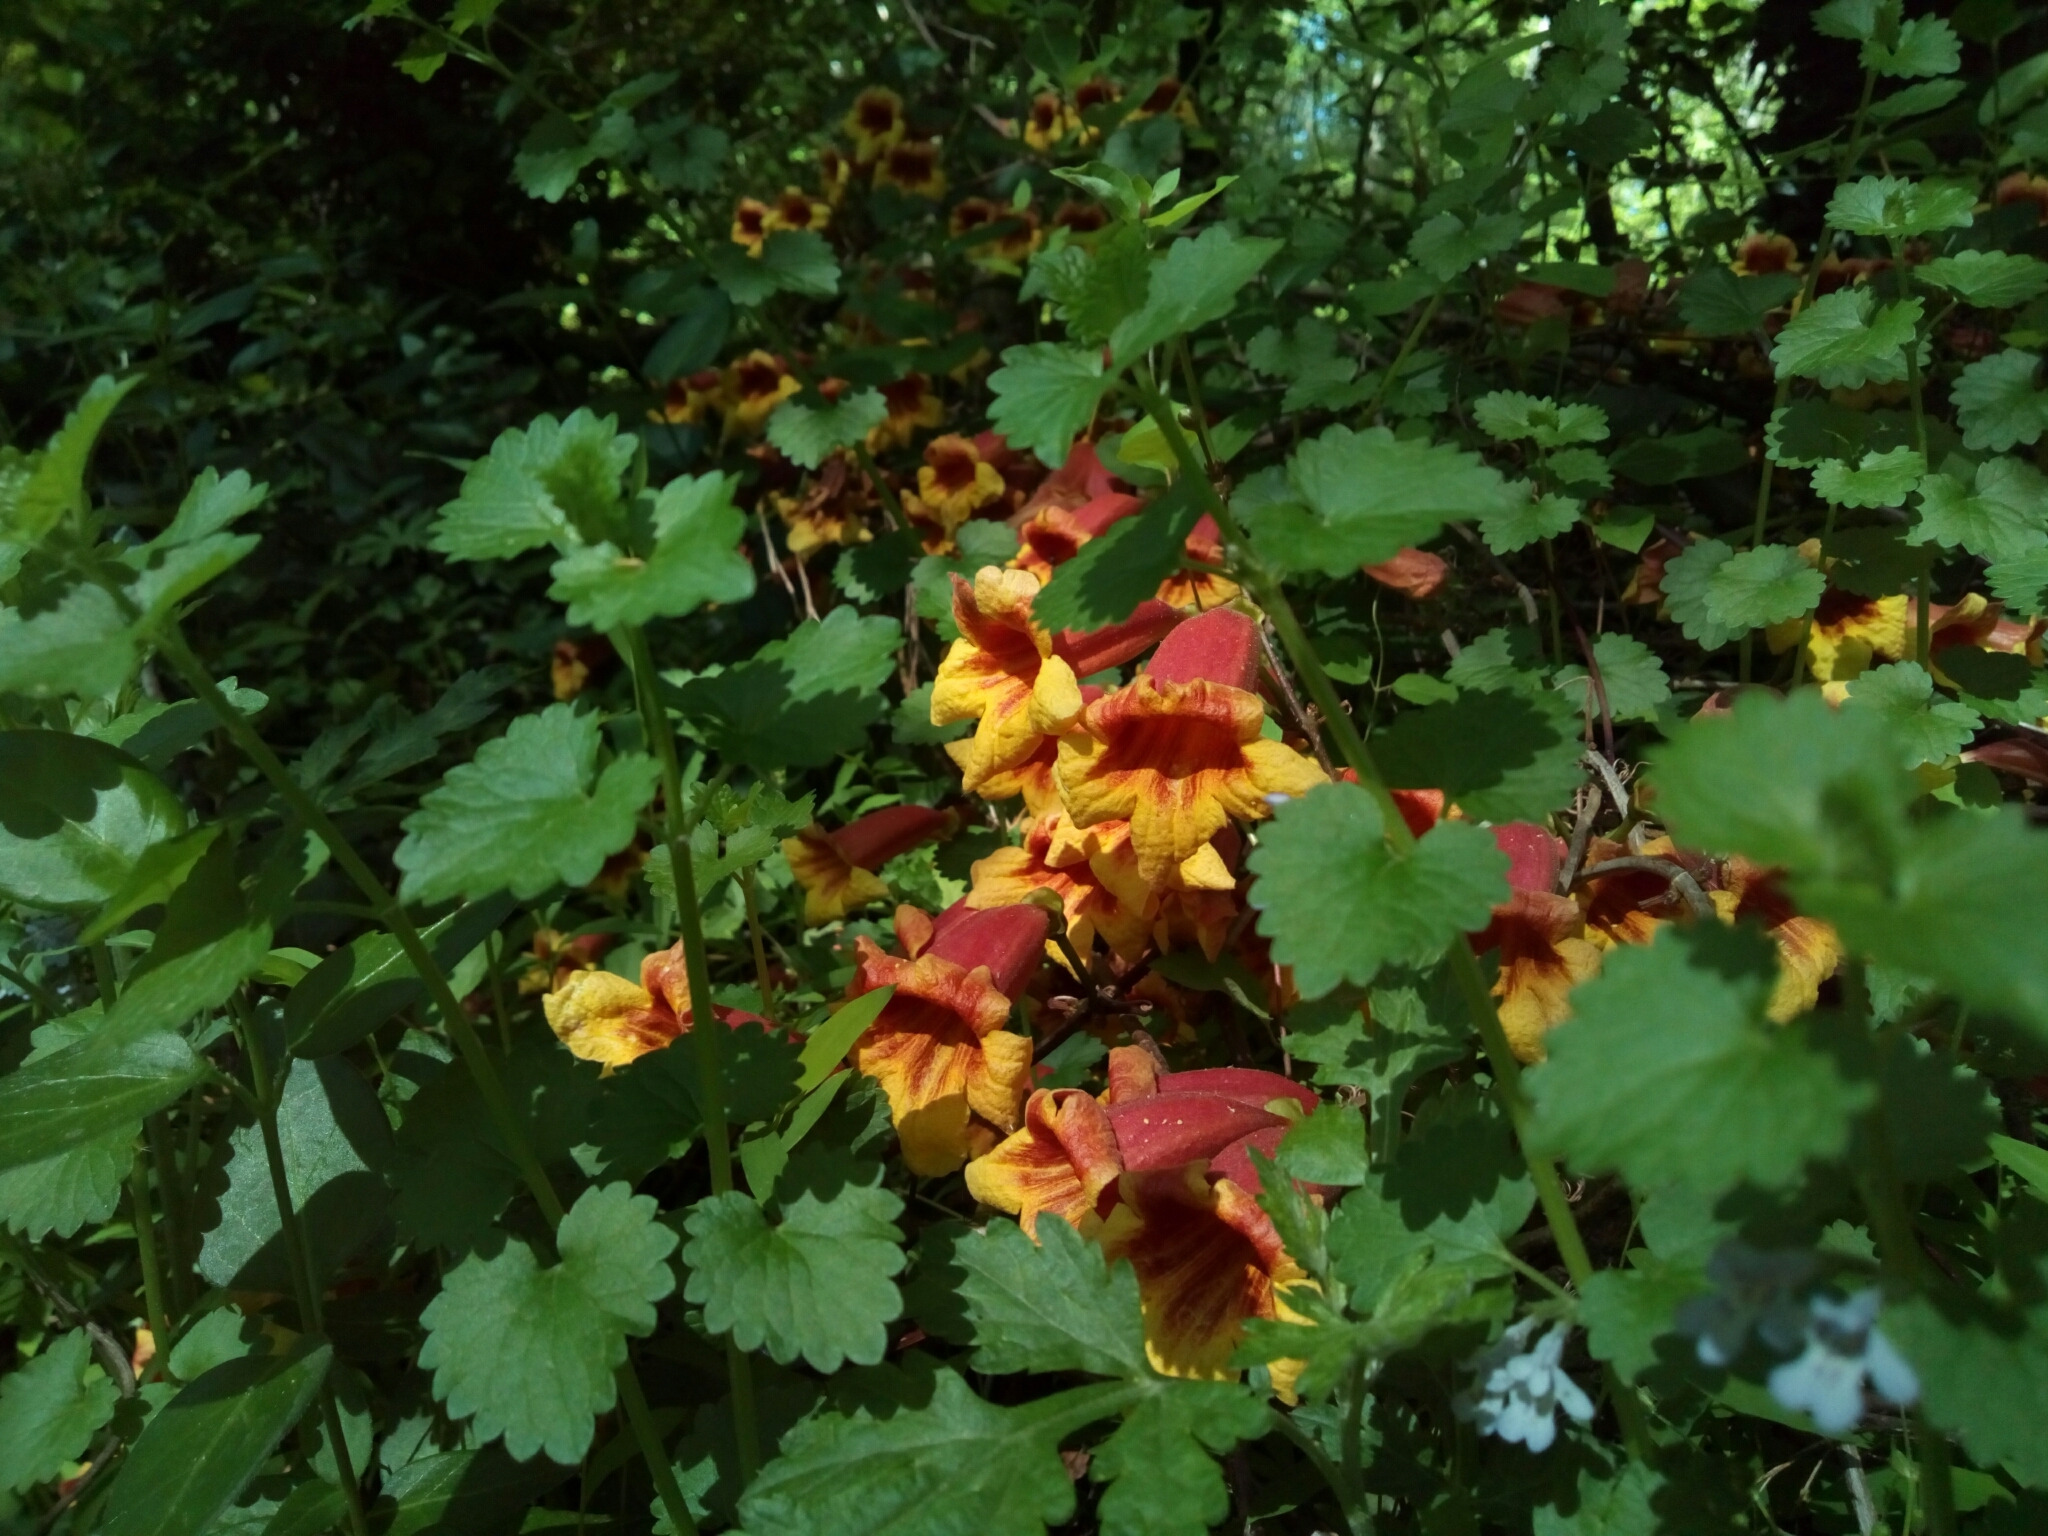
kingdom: Plantae
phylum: Tracheophyta
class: Magnoliopsida
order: Lamiales
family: Bignoniaceae
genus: Bignonia
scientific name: Bignonia capreolata
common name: Crossvine
